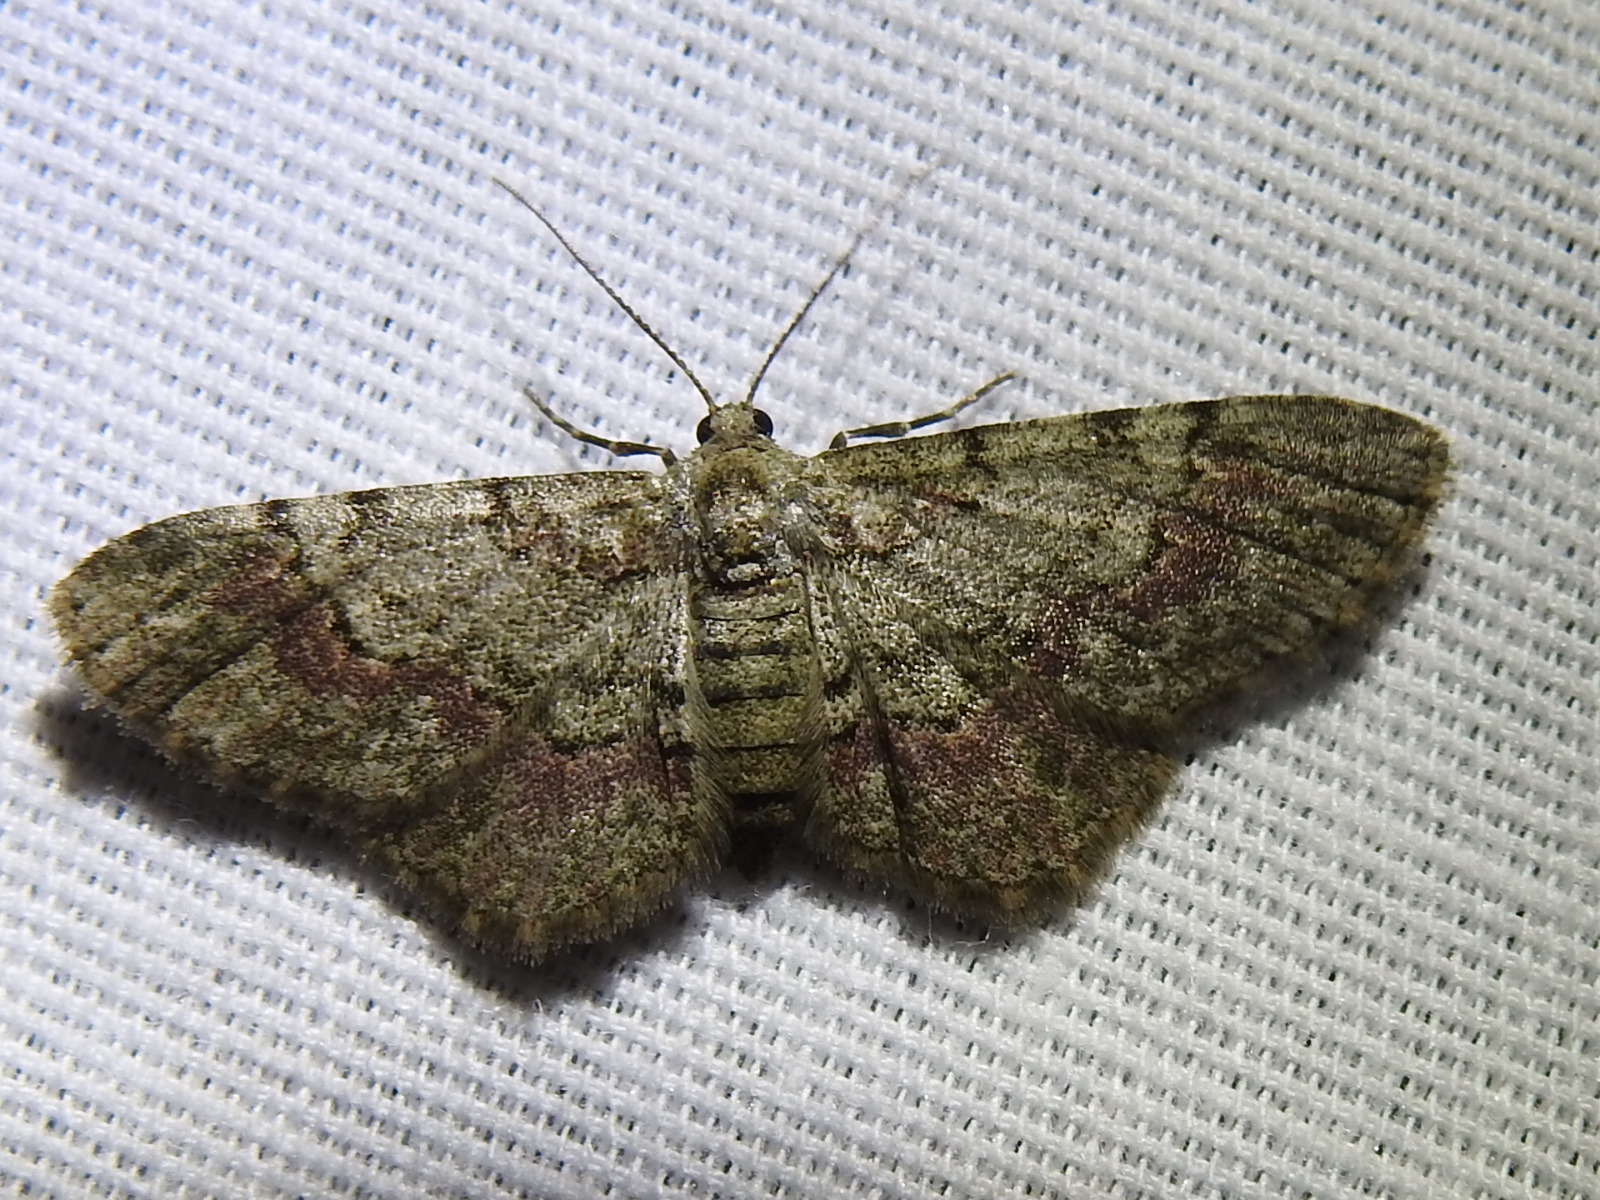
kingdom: Animalia
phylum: Arthropoda
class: Insecta
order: Lepidoptera
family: Geometridae
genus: Glenoides
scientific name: Glenoides texanaria
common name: Texas gray
